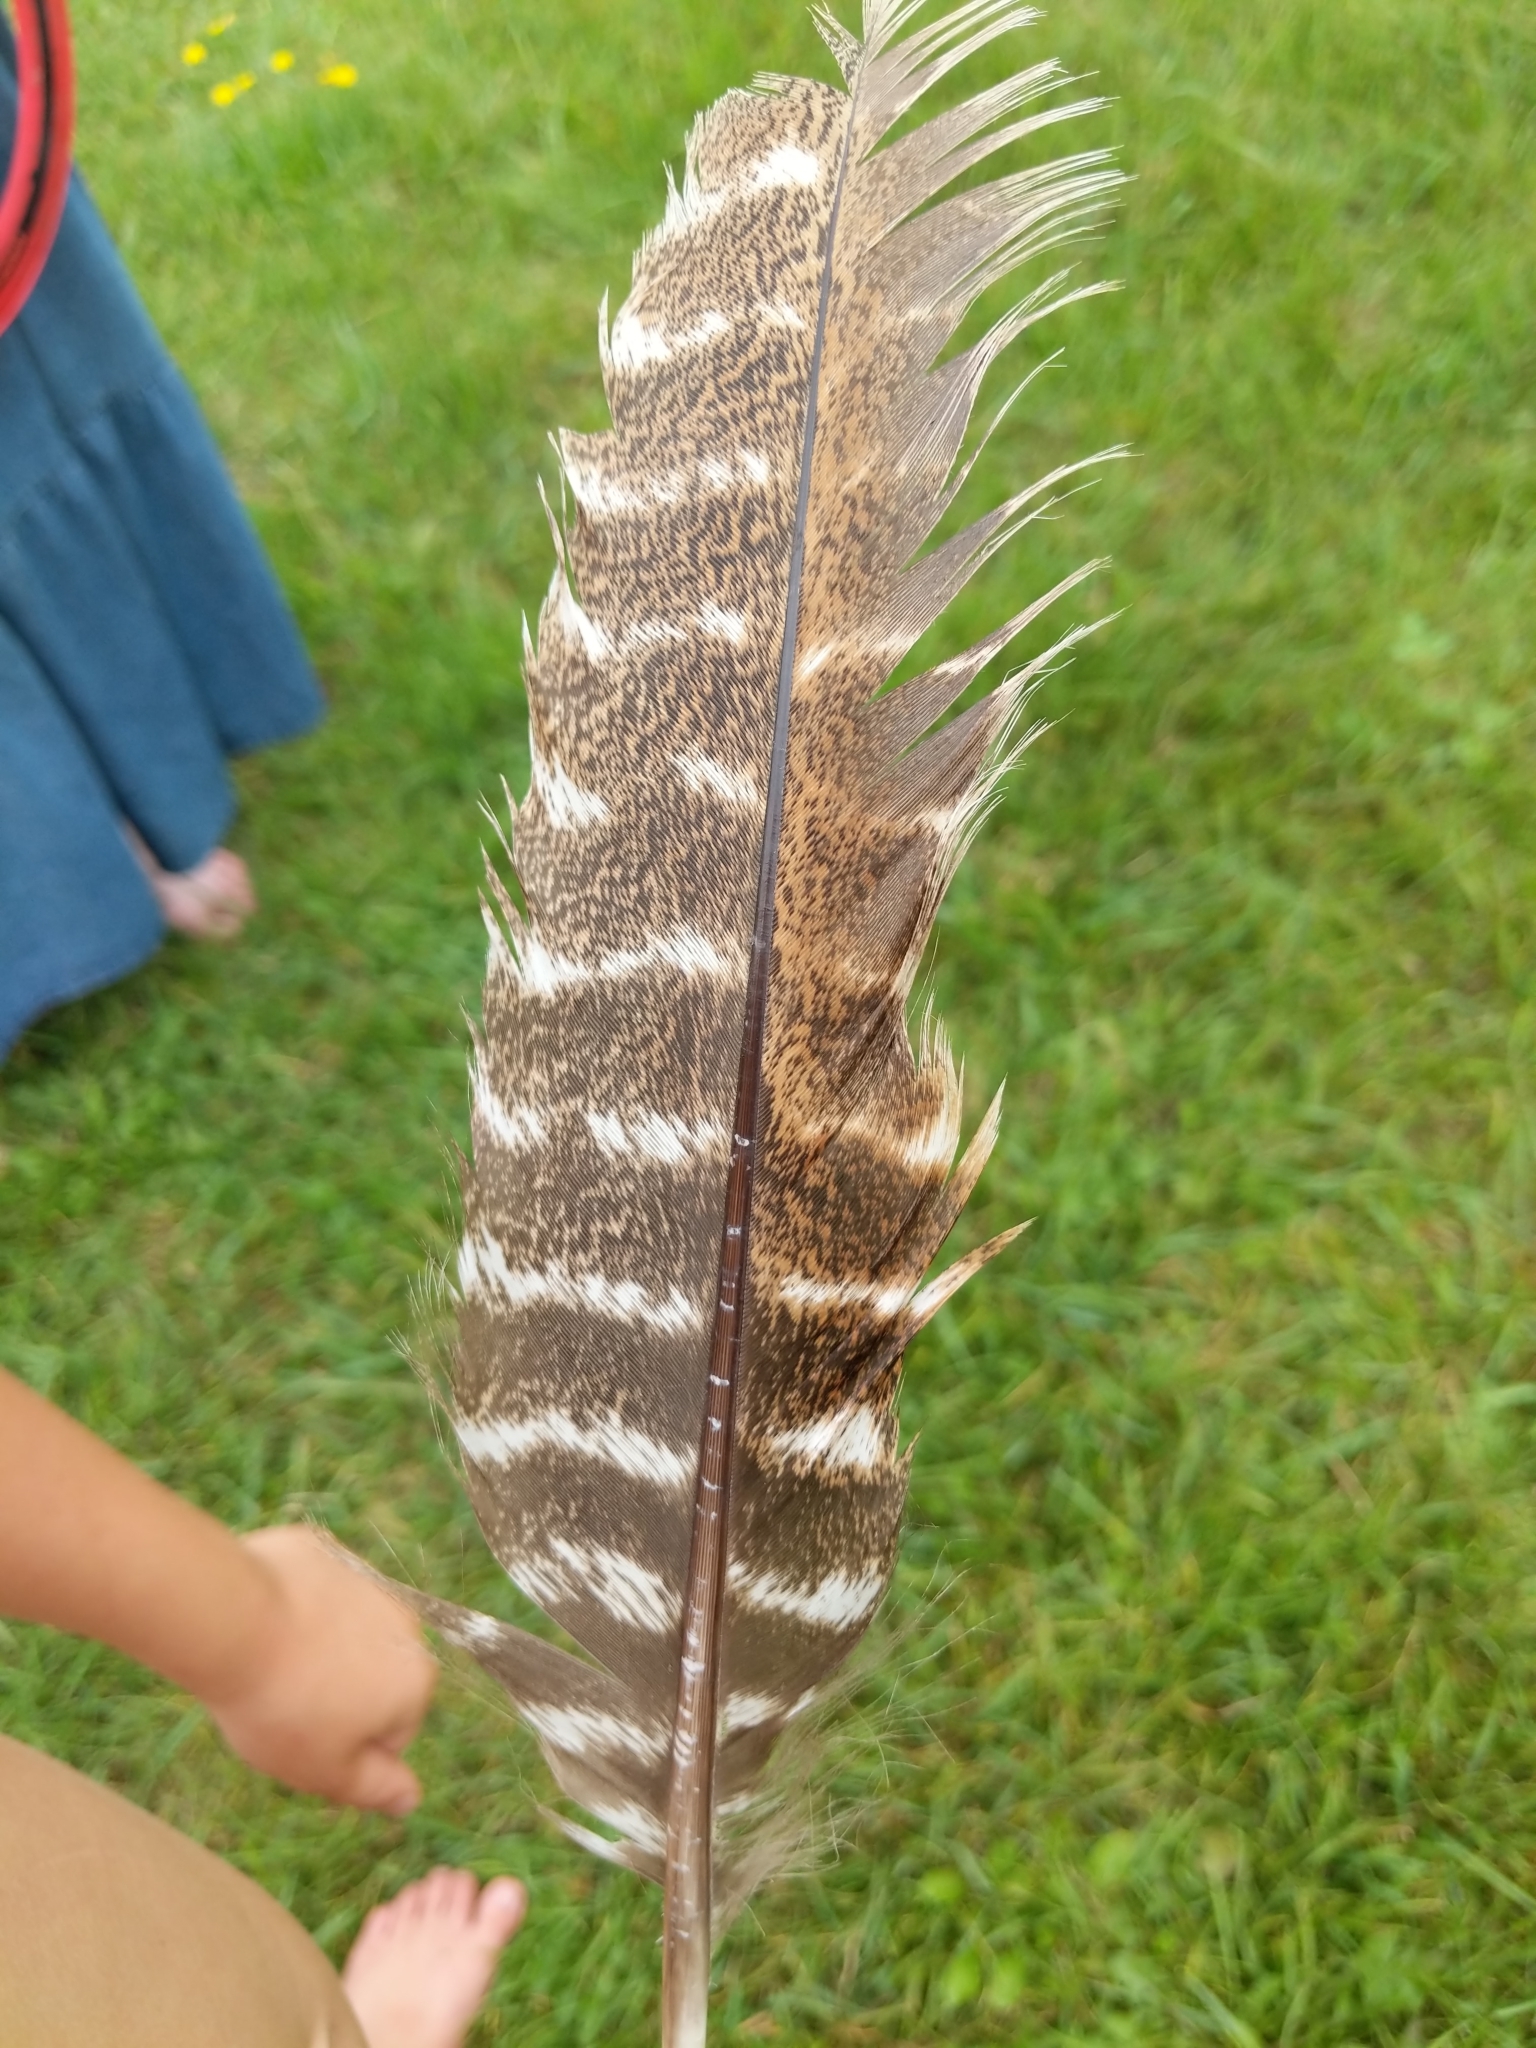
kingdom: Animalia
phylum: Chordata
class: Aves
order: Galliformes
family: Phasianidae
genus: Meleagris
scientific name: Meleagris gallopavo
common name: Wild turkey
